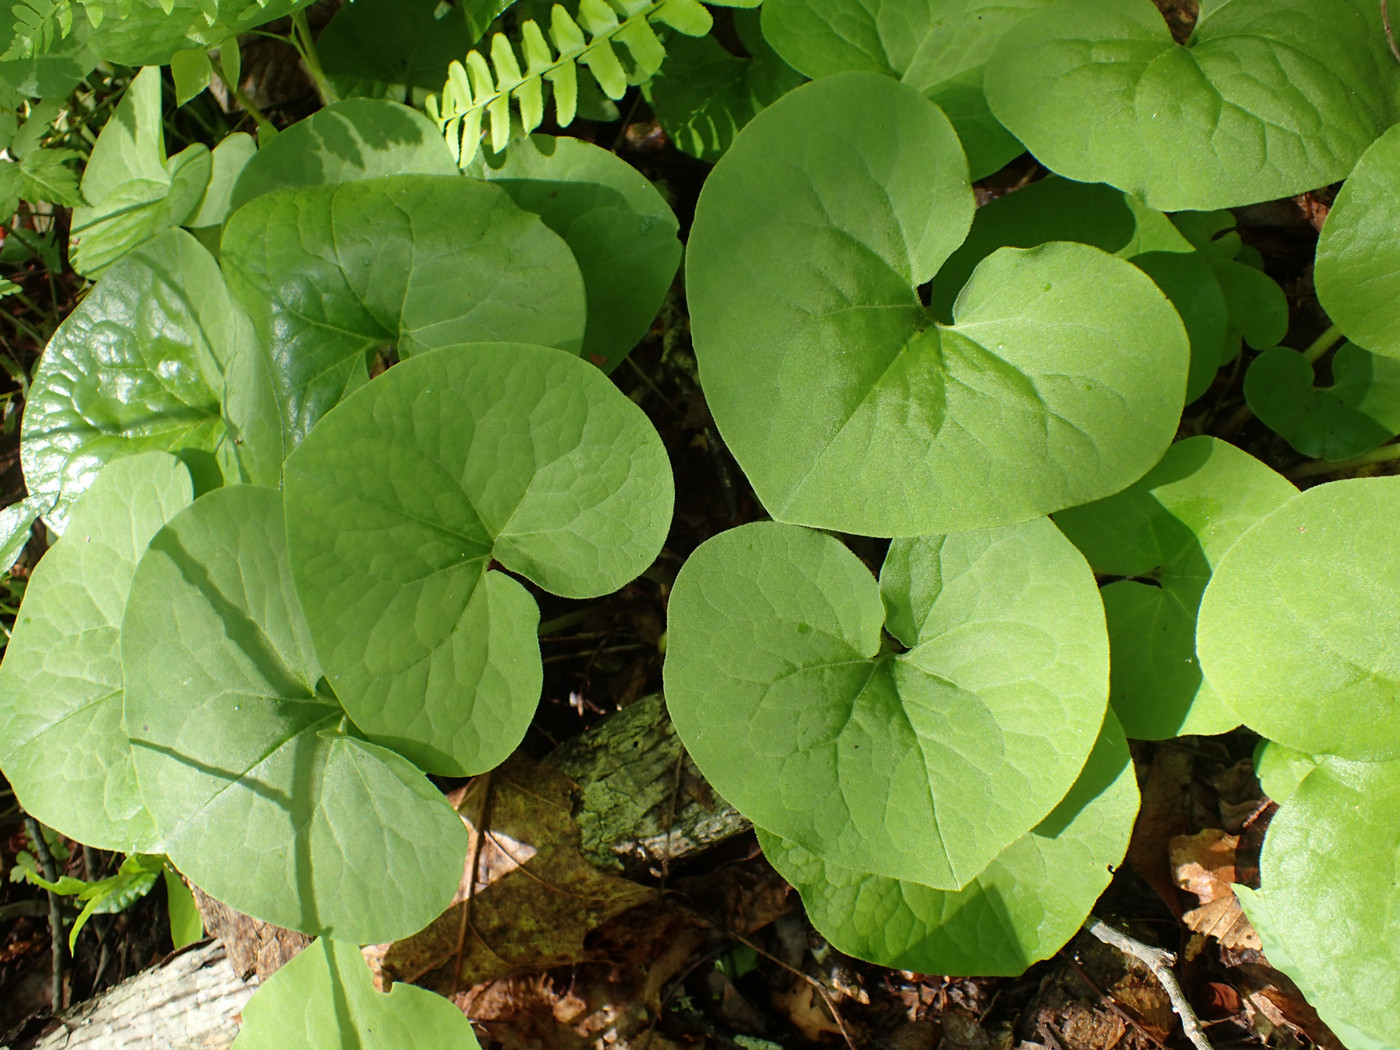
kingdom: Plantae
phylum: Tracheophyta
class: Magnoliopsida
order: Piperales
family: Aristolochiaceae
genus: Asarum
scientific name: Asarum canadense
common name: Wild ginger
